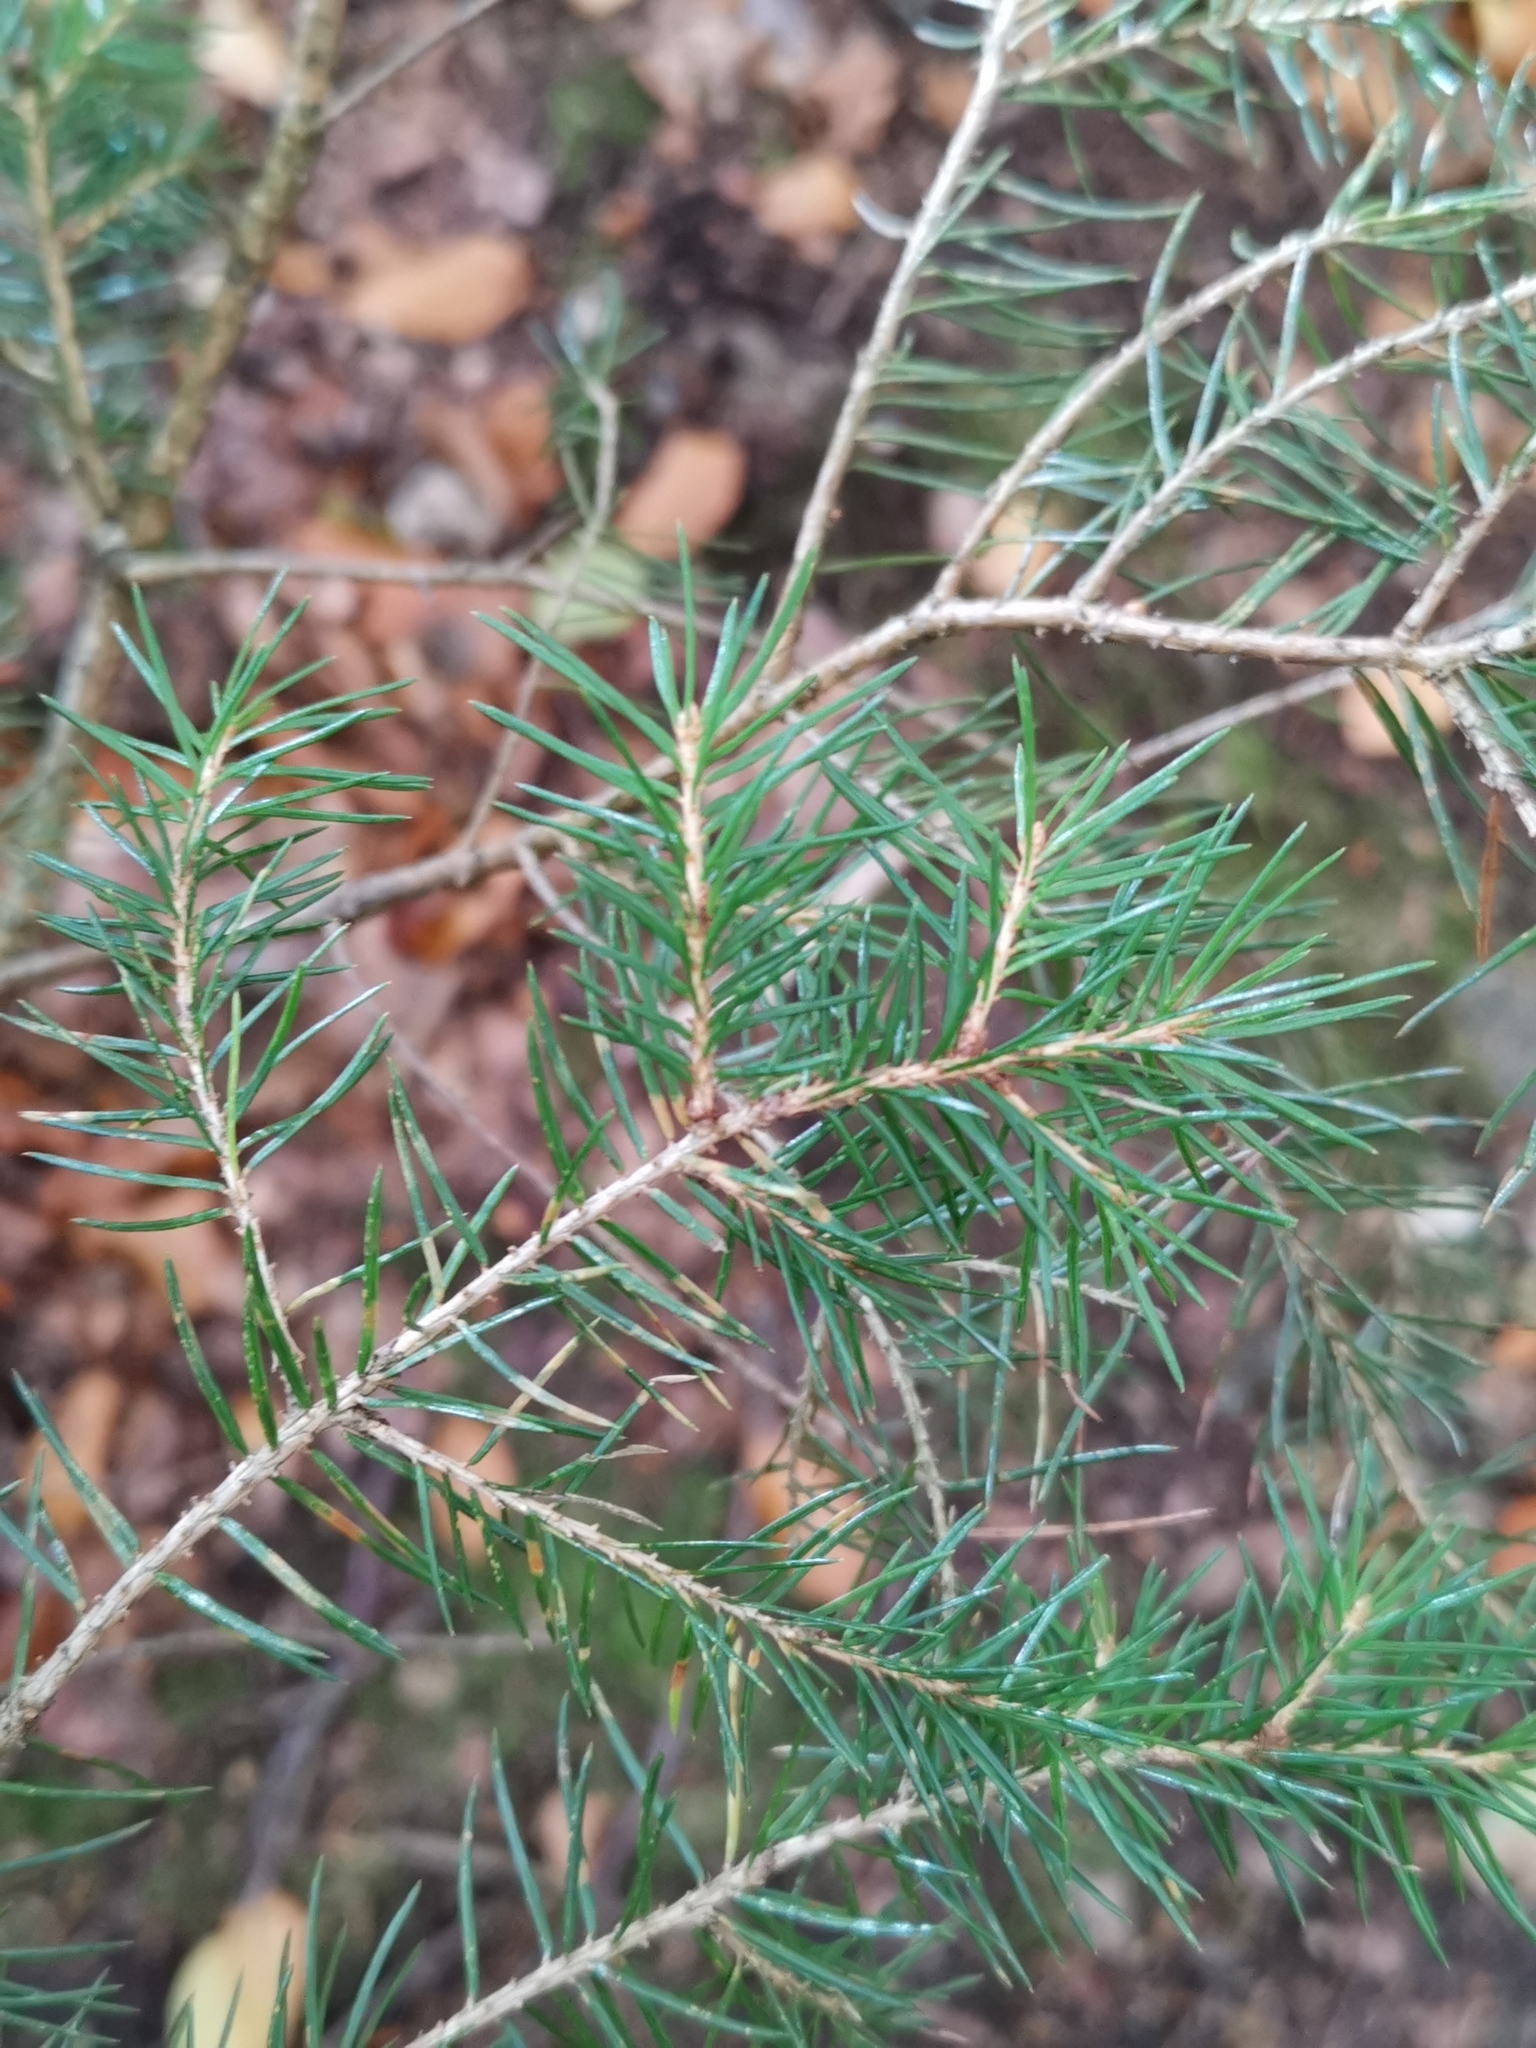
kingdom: Plantae
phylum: Tracheophyta
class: Pinopsida
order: Pinales
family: Pinaceae
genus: Picea
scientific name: Picea abies
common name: Norway spruce
